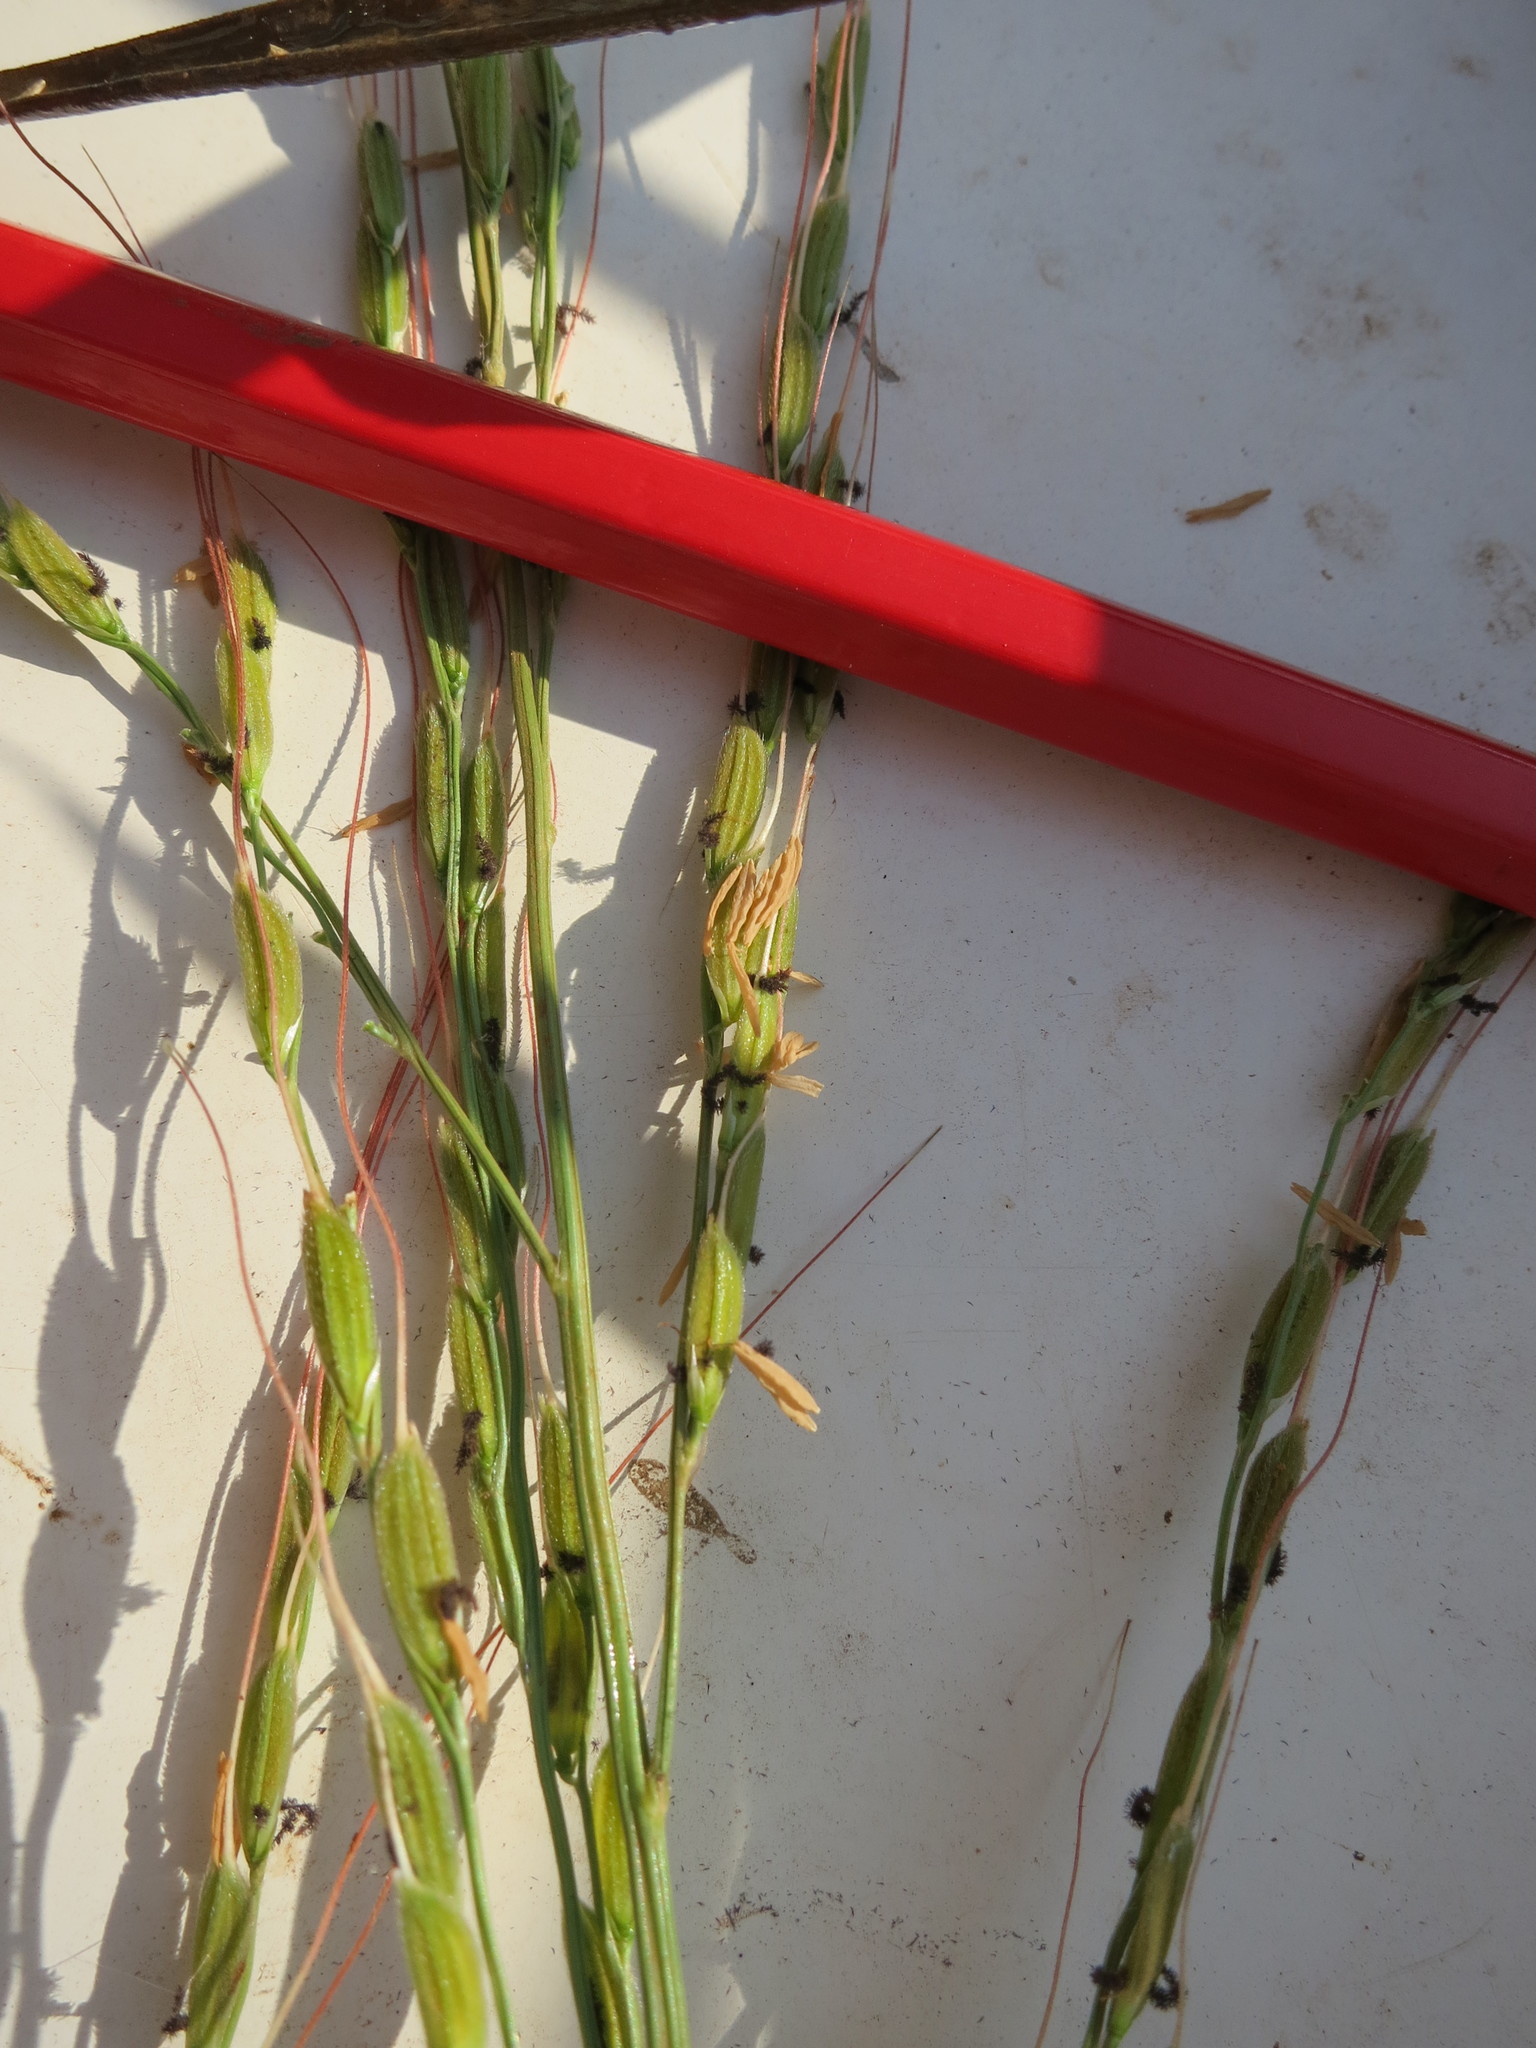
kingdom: Plantae
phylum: Tracheophyta
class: Liliopsida
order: Poales
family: Poaceae
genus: Oryza
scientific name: Oryza longistaminata
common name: Red rice
